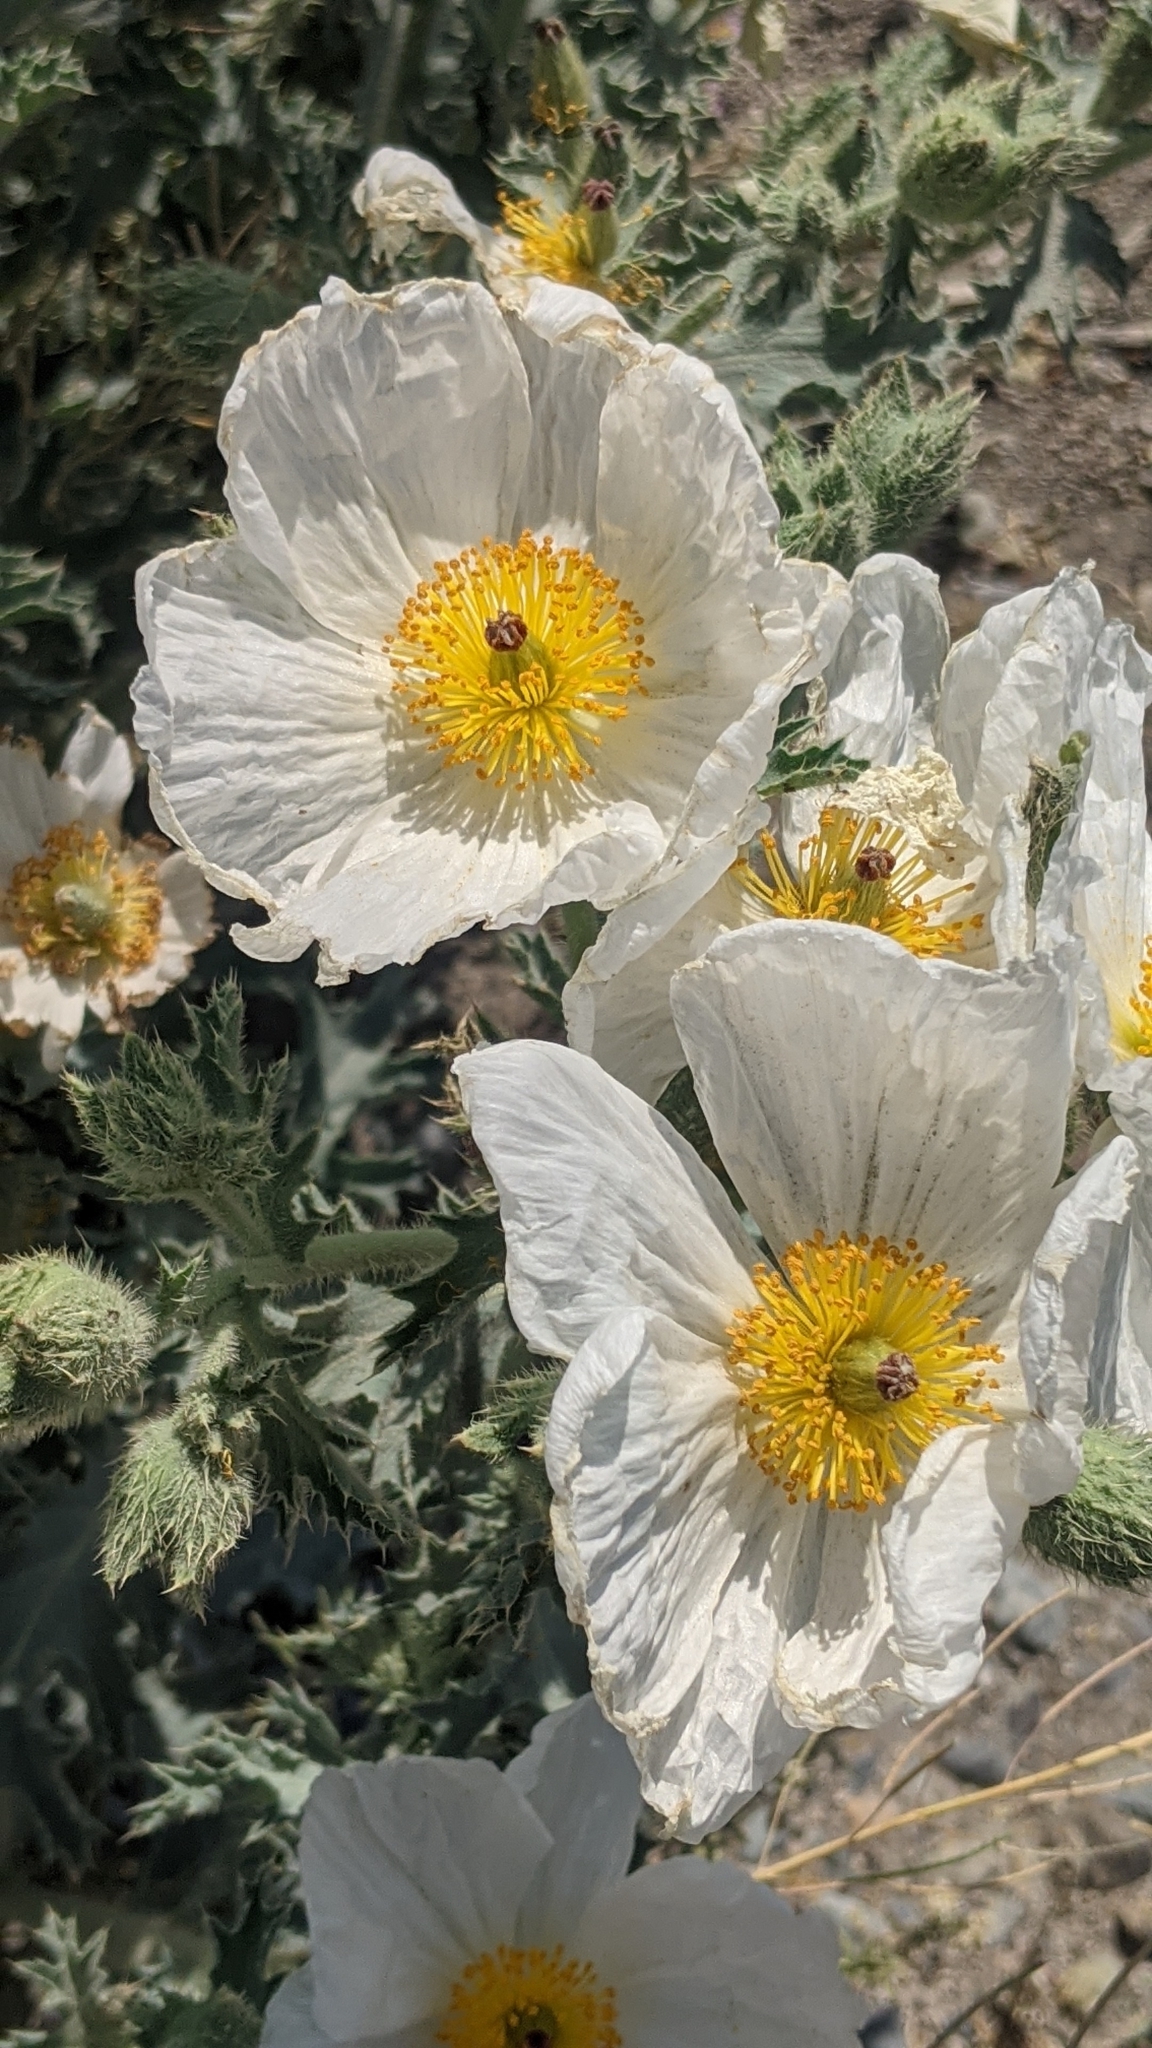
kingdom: Plantae
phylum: Tracheophyta
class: Magnoliopsida
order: Ranunculales
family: Papaveraceae
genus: Argemone
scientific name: Argemone munita
